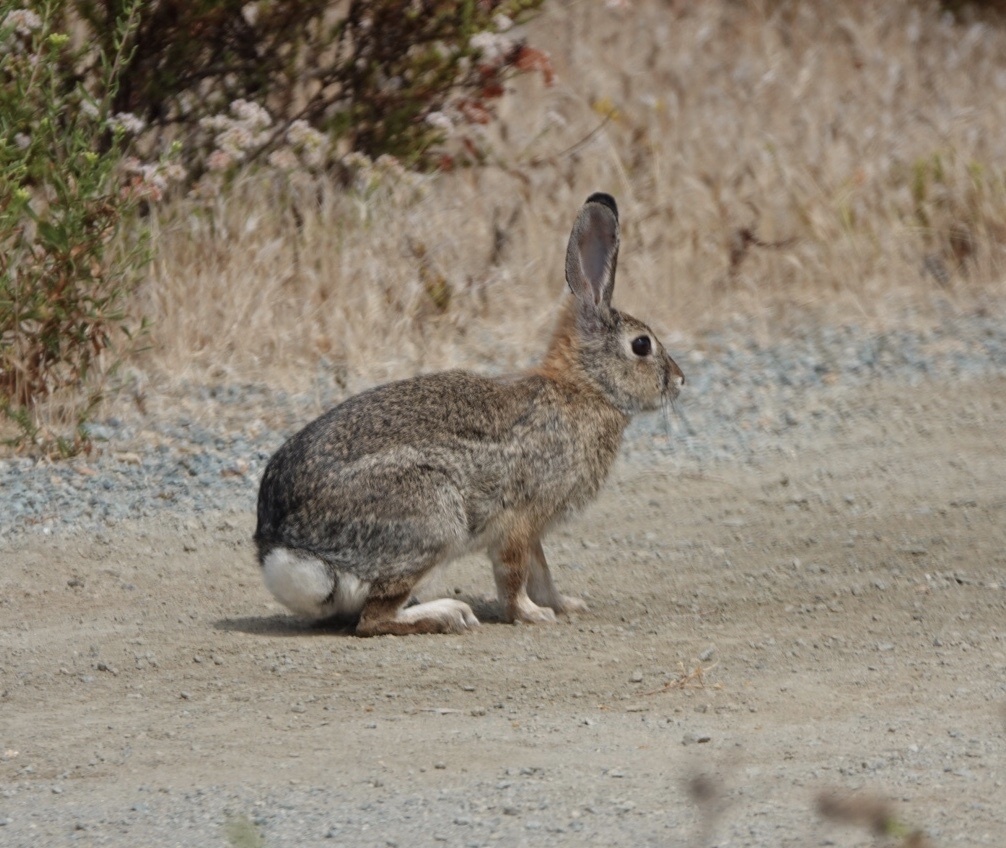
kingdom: Animalia
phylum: Chordata
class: Mammalia
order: Lagomorpha
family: Leporidae
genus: Sylvilagus
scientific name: Sylvilagus audubonii
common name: Desert cottontail
